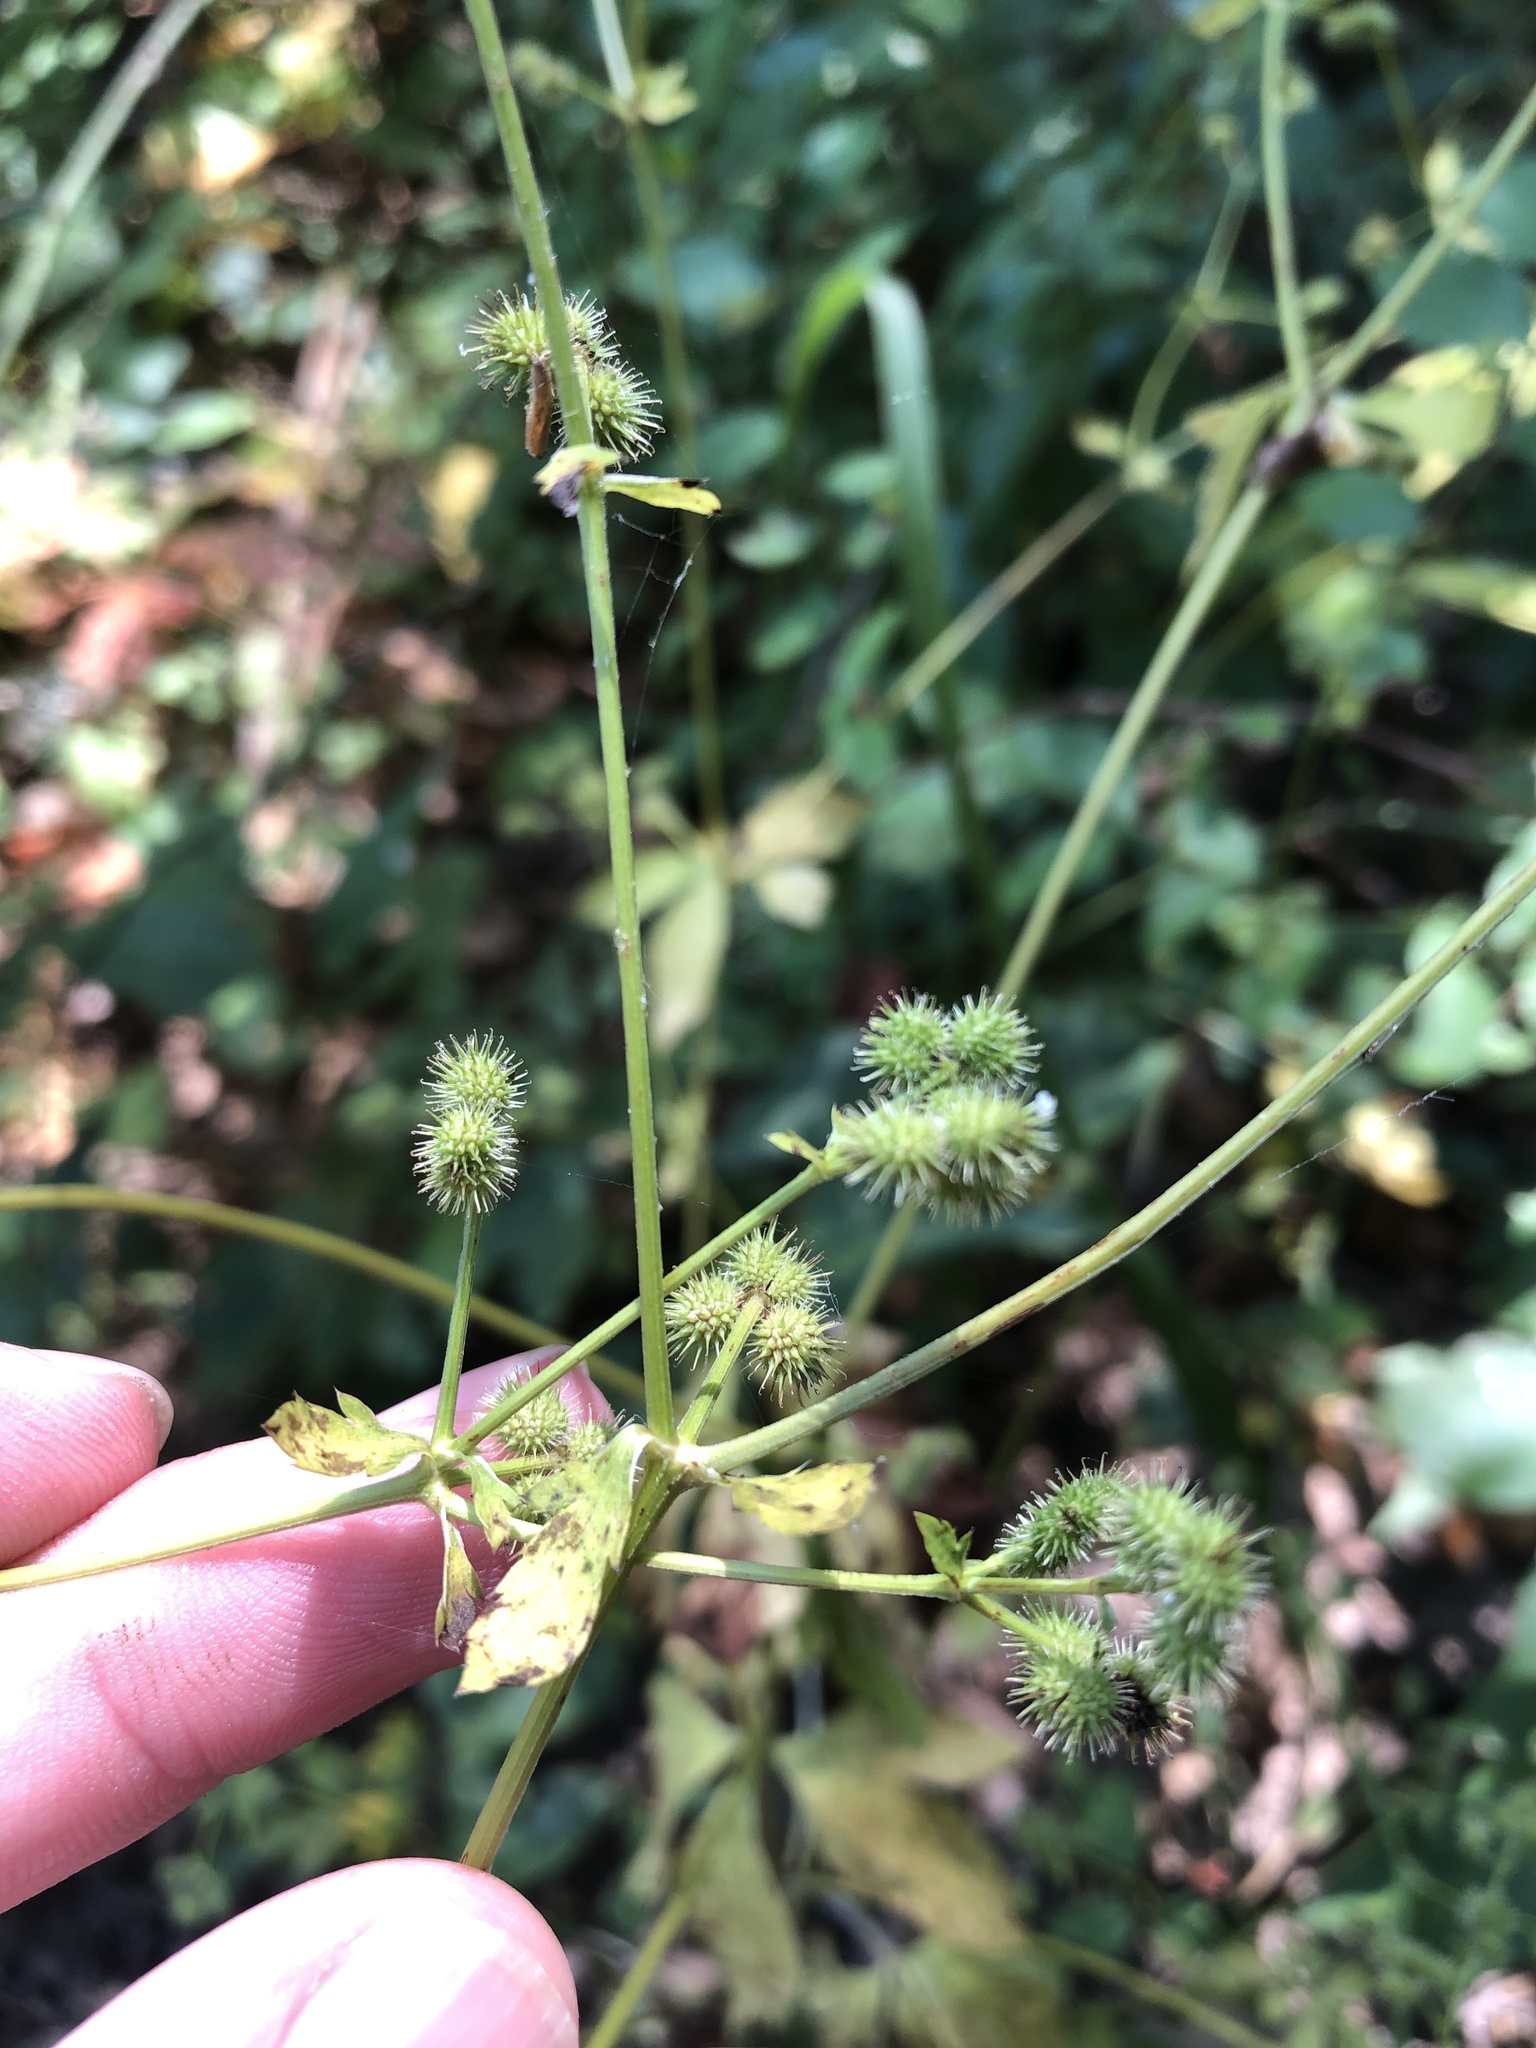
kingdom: Plantae
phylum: Tracheophyta
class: Magnoliopsida
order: Apiales
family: Apiaceae
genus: Sanicula
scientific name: Sanicula canadensis
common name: Canada sanicle
